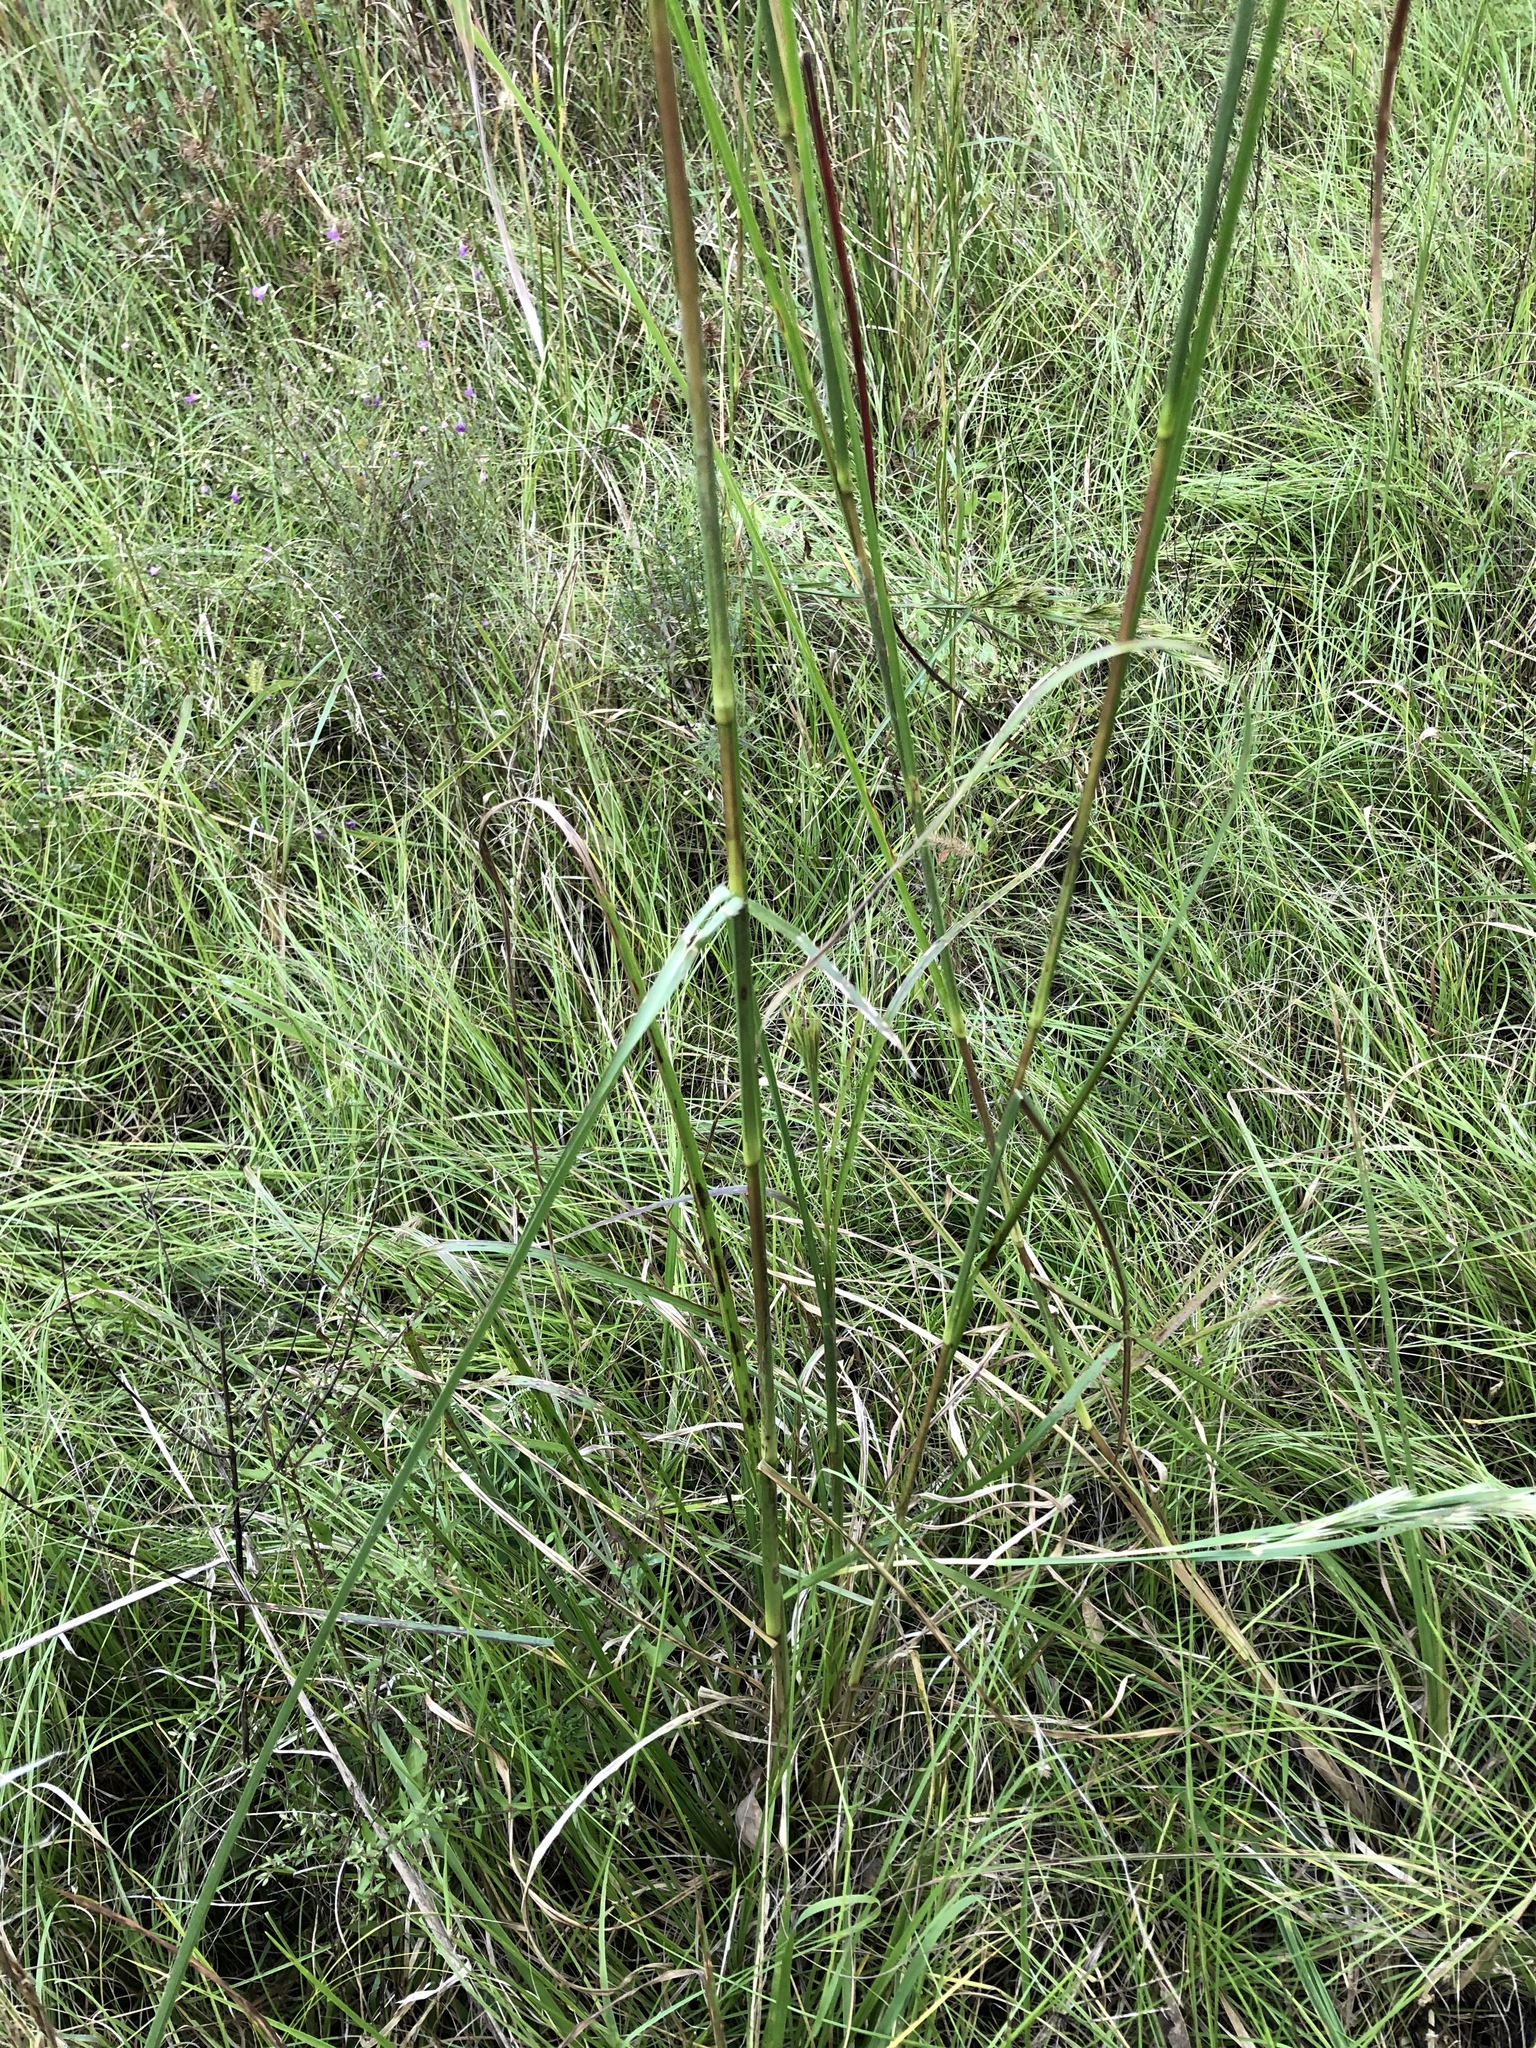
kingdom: Plantae
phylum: Tracheophyta
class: Liliopsida
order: Poales
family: Poaceae
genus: Andropogon
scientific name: Andropogon tenuispatheus
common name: Bushy bluestem
